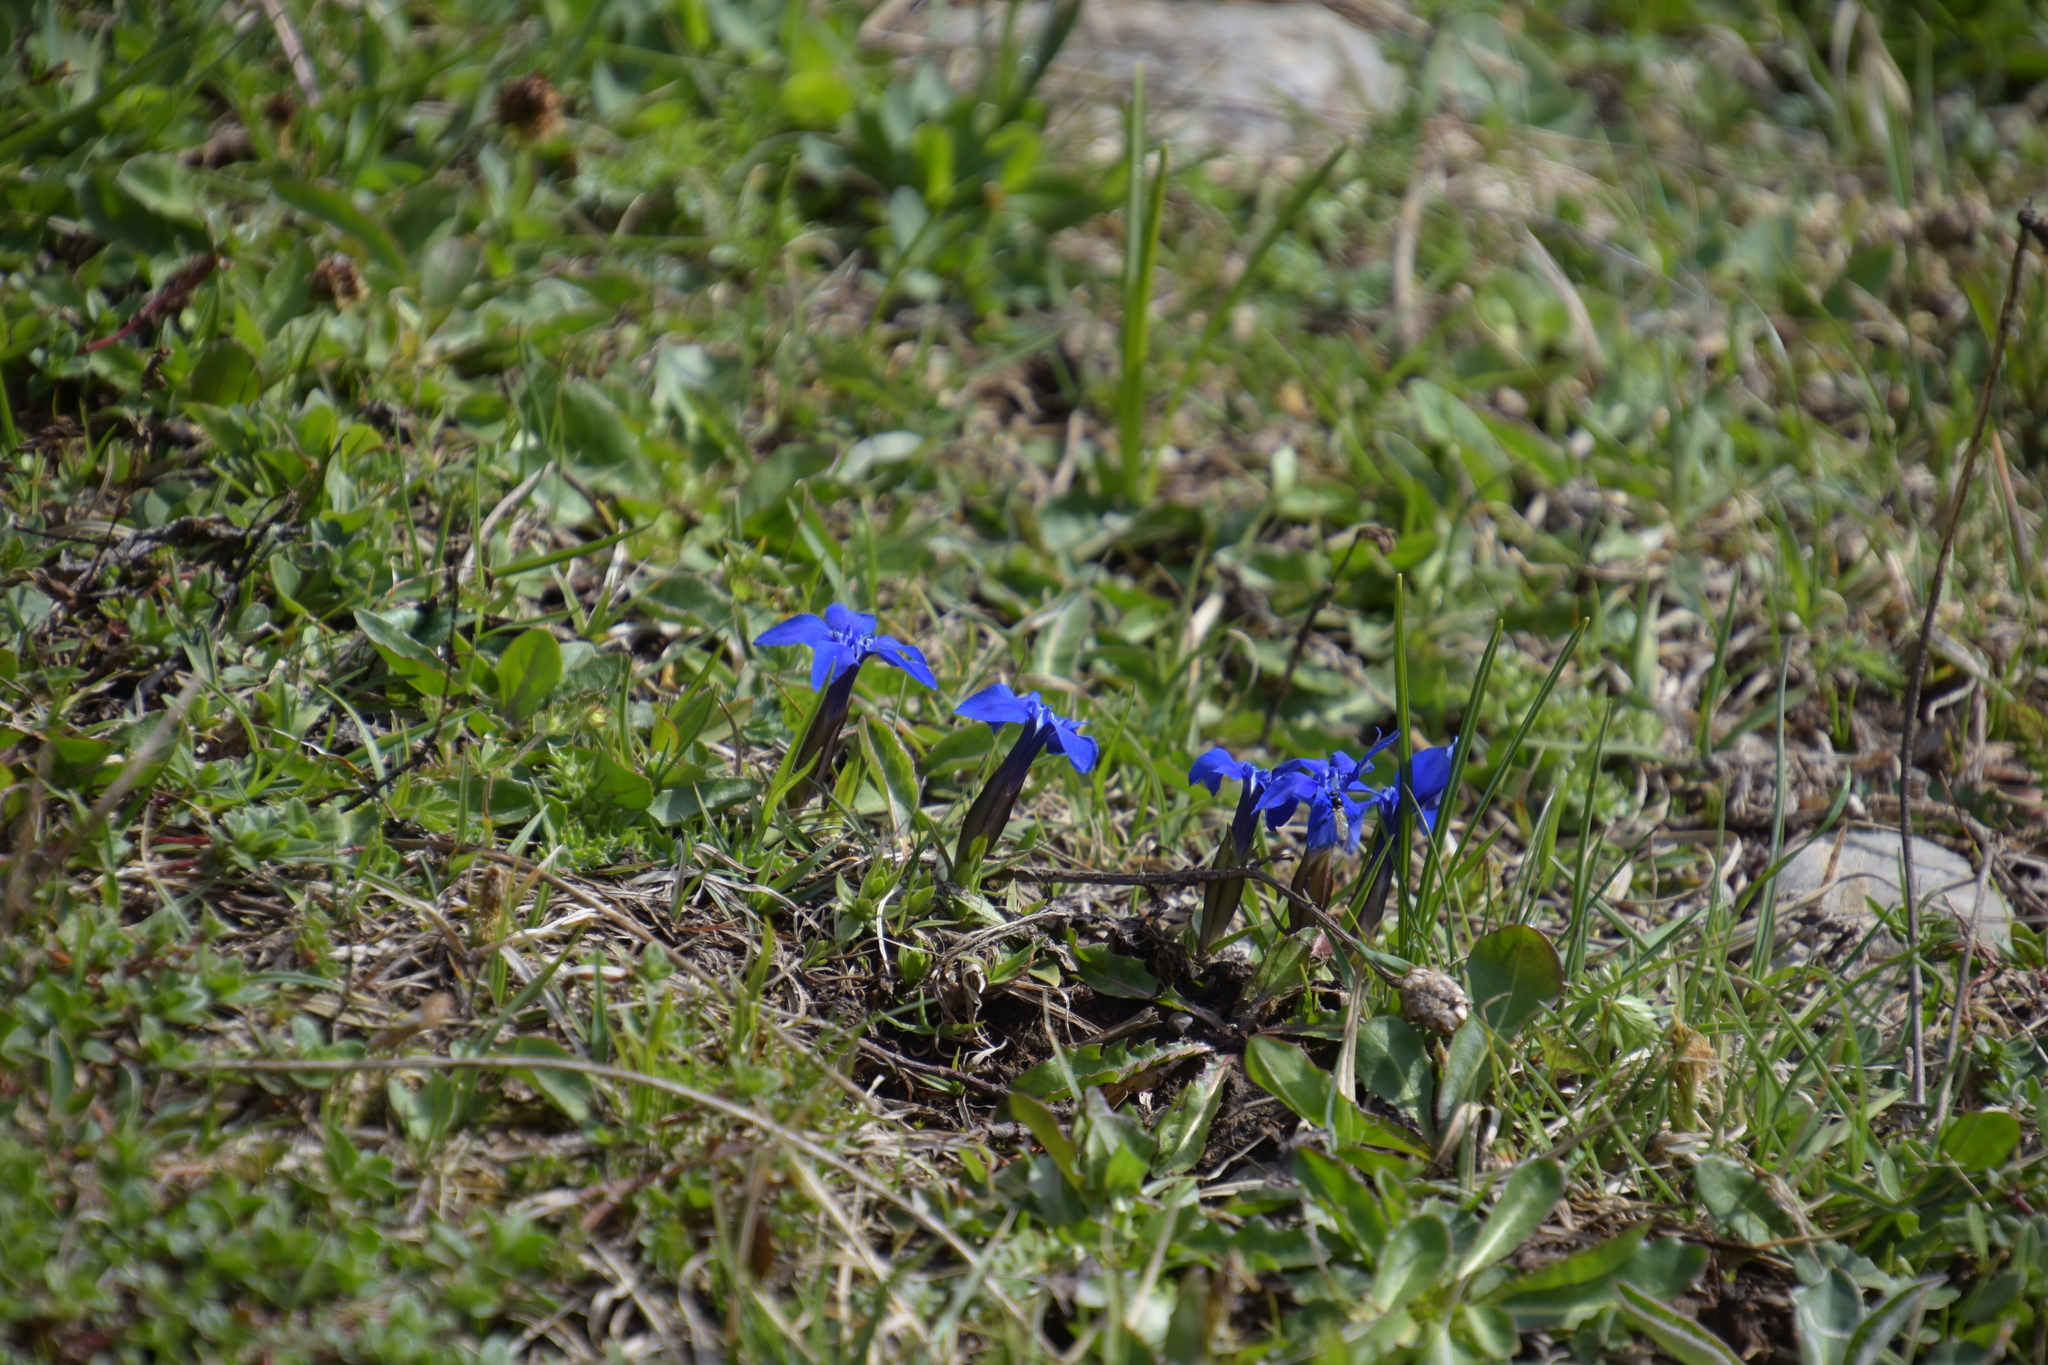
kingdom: Plantae
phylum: Tracheophyta
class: Magnoliopsida
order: Gentianales
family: Gentianaceae
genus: Gentiana
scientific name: Gentiana verna
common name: Spring gentian
